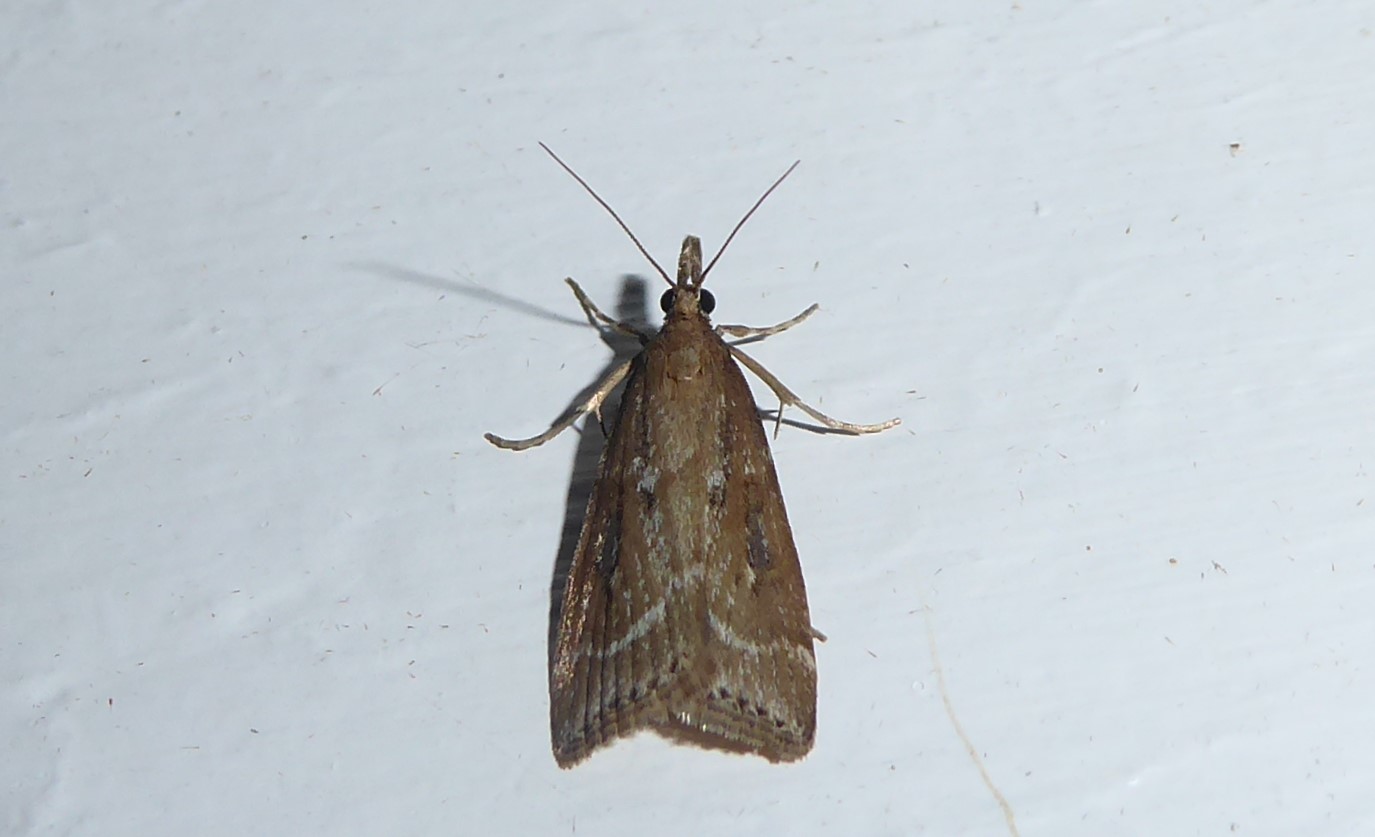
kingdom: Animalia
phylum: Arthropoda
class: Insecta
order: Lepidoptera
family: Crambidae
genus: Eudonia
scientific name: Eudonia octophora
